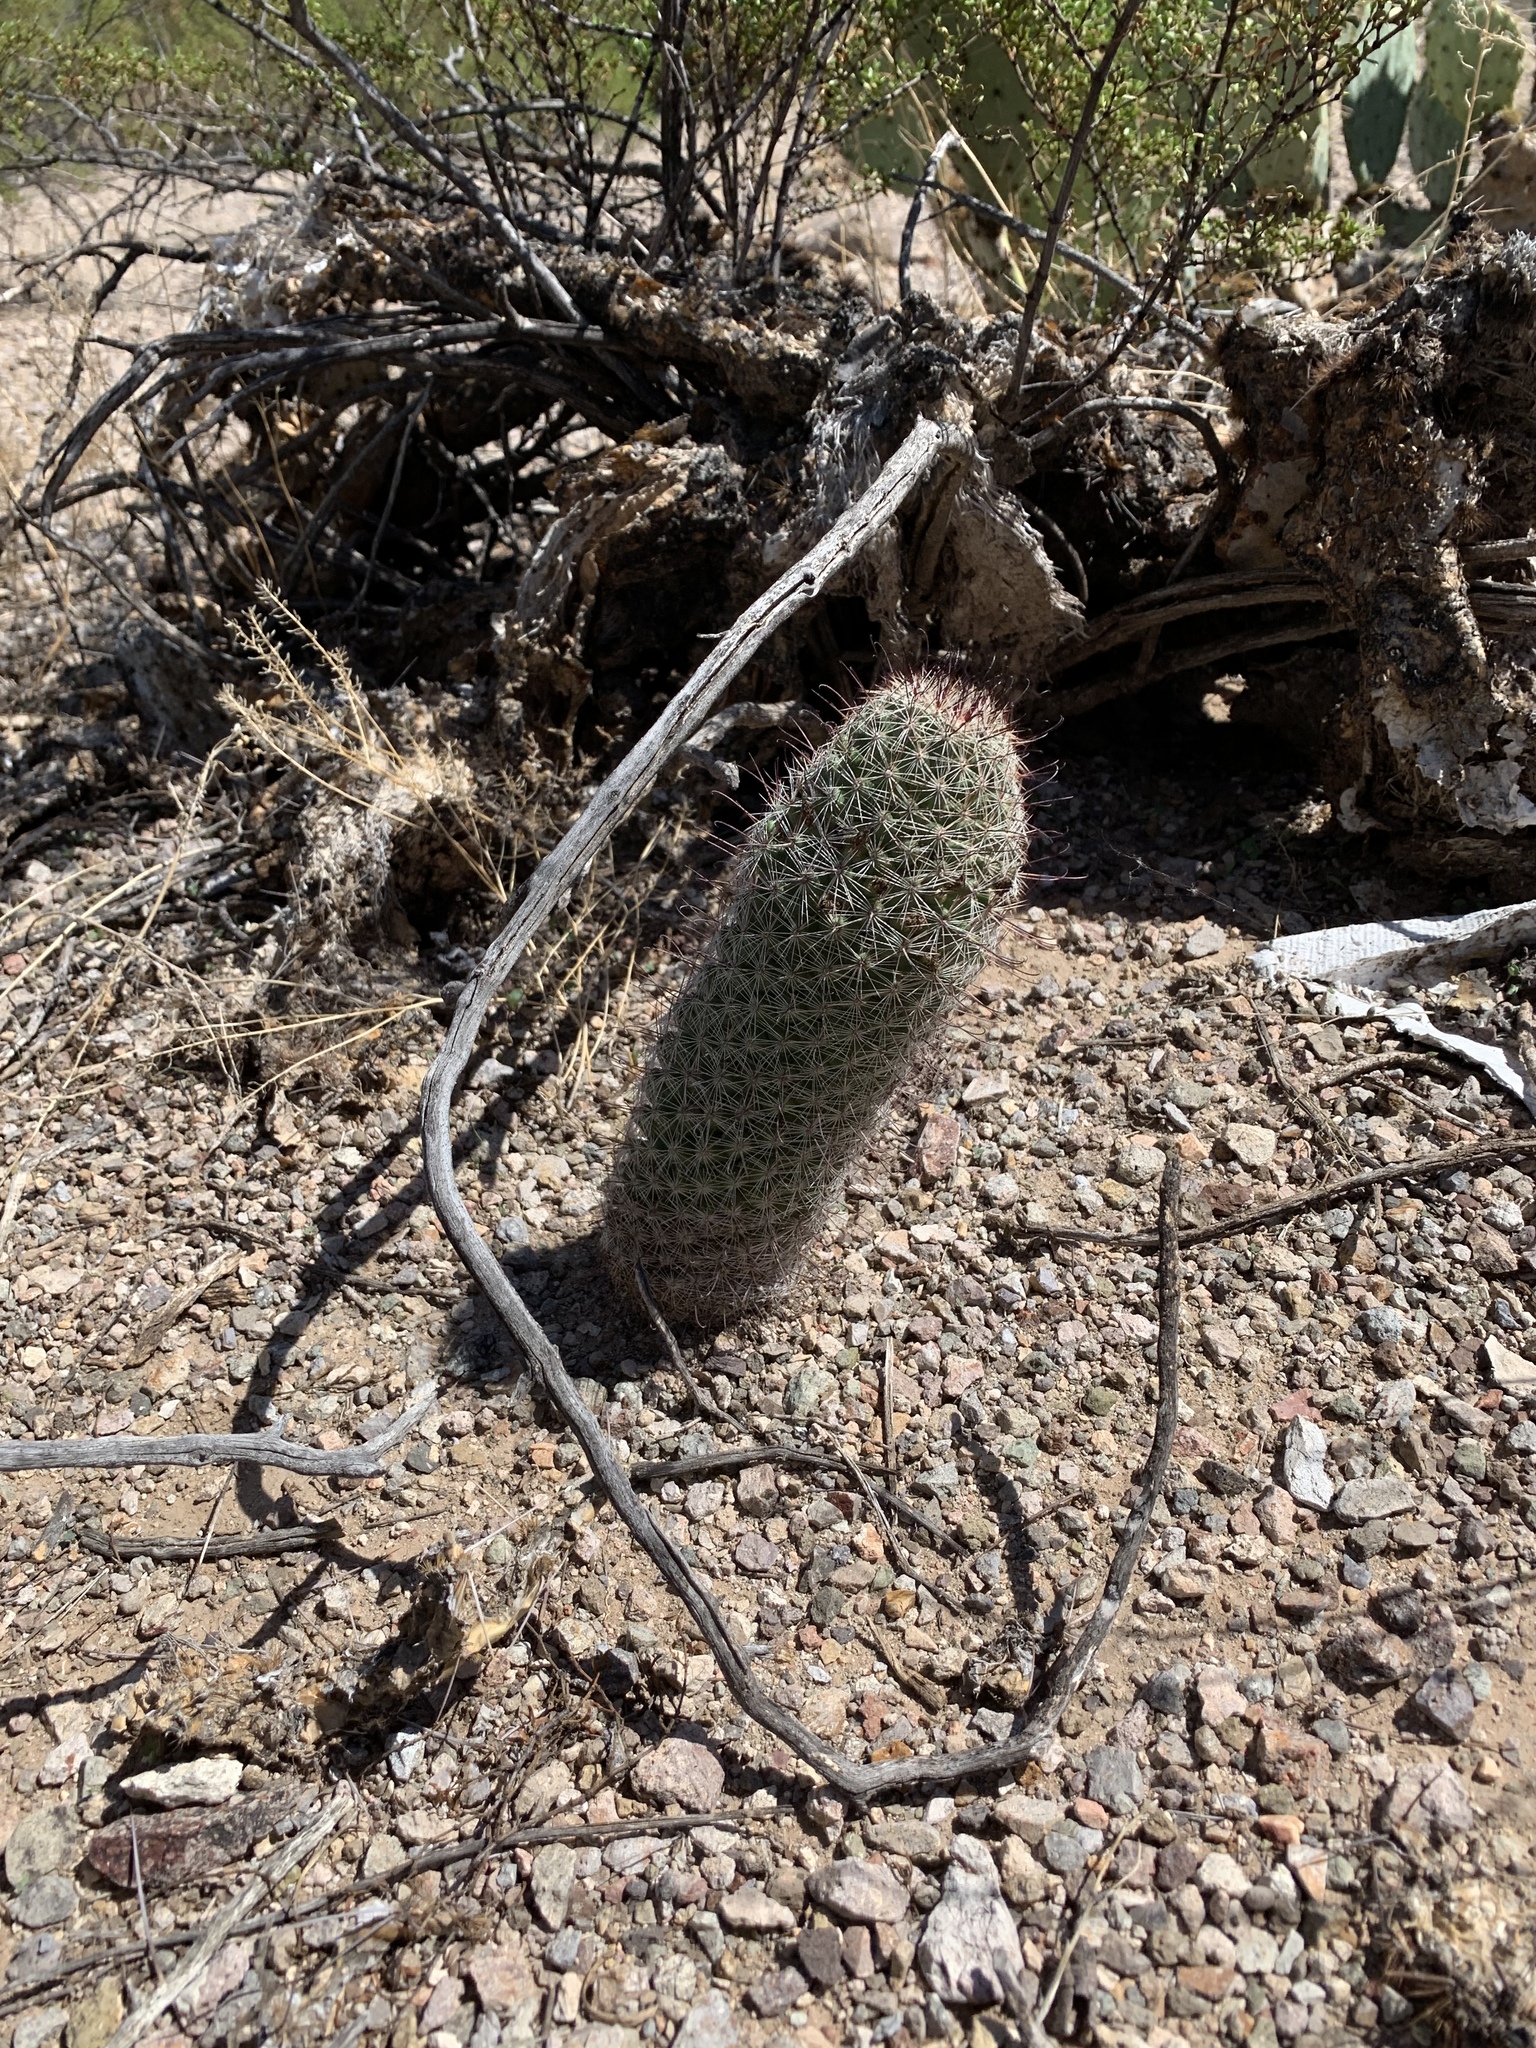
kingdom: Plantae
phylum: Tracheophyta
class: Magnoliopsida
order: Caryophyllales
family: Cactaceae
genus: Cochemiea
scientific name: Cochemiea grahamii
